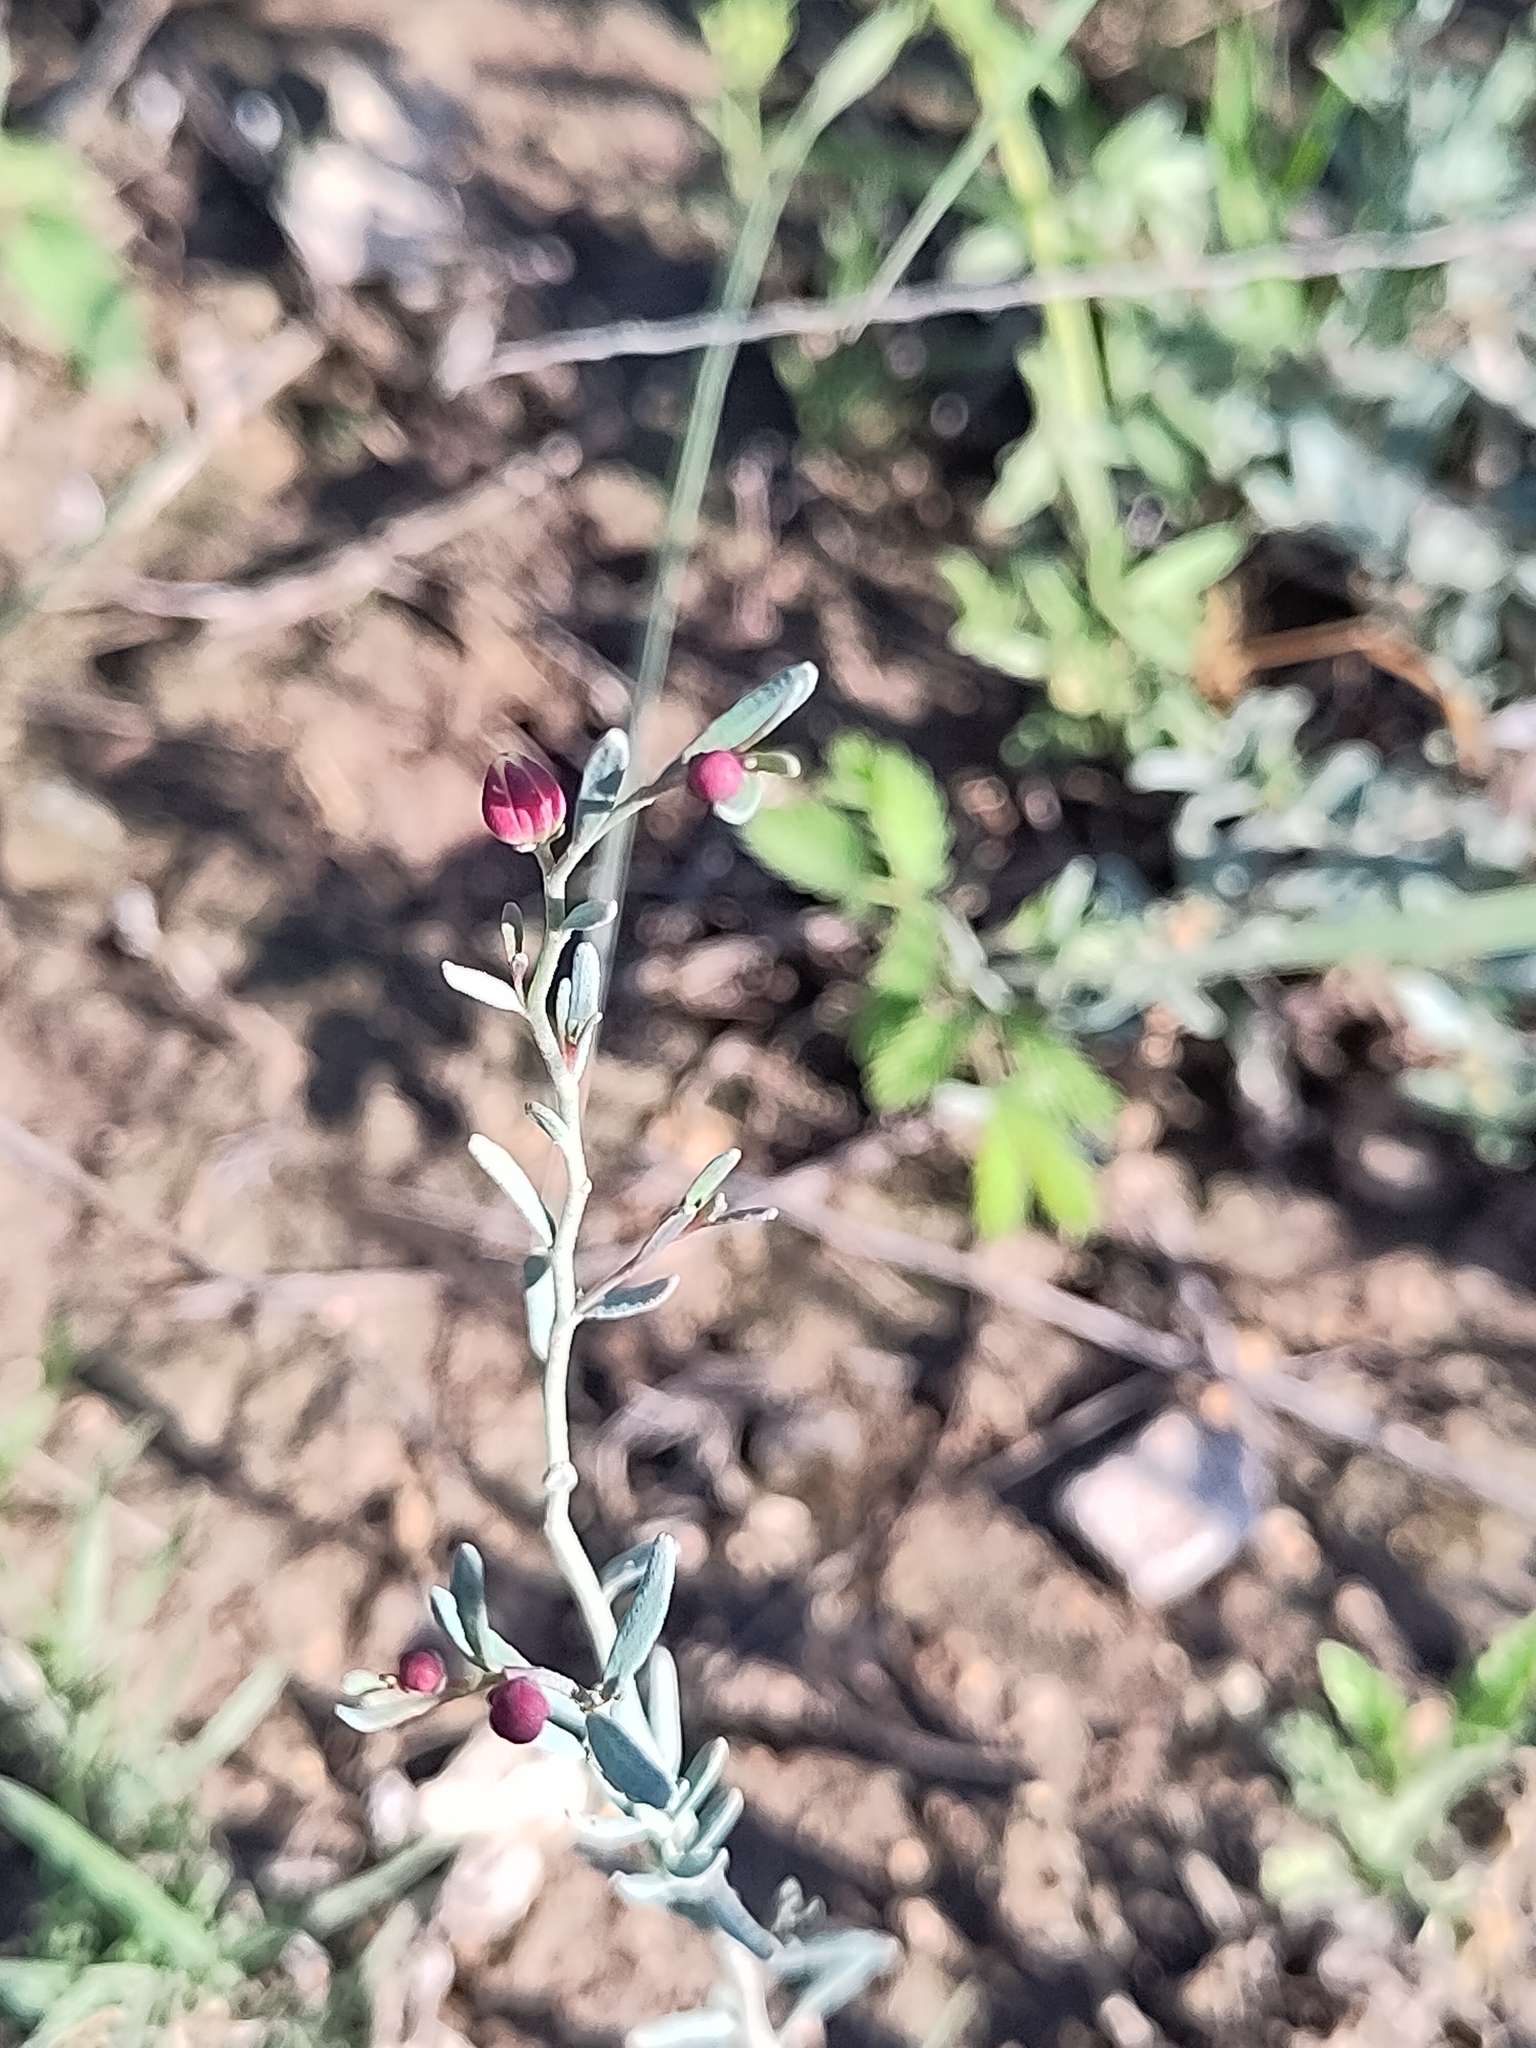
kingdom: Plantae
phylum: Tracheophyta
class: Magnoliopsida
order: Sapindales
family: Rutaceae
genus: Thamnosma
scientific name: Thamnosma texana
